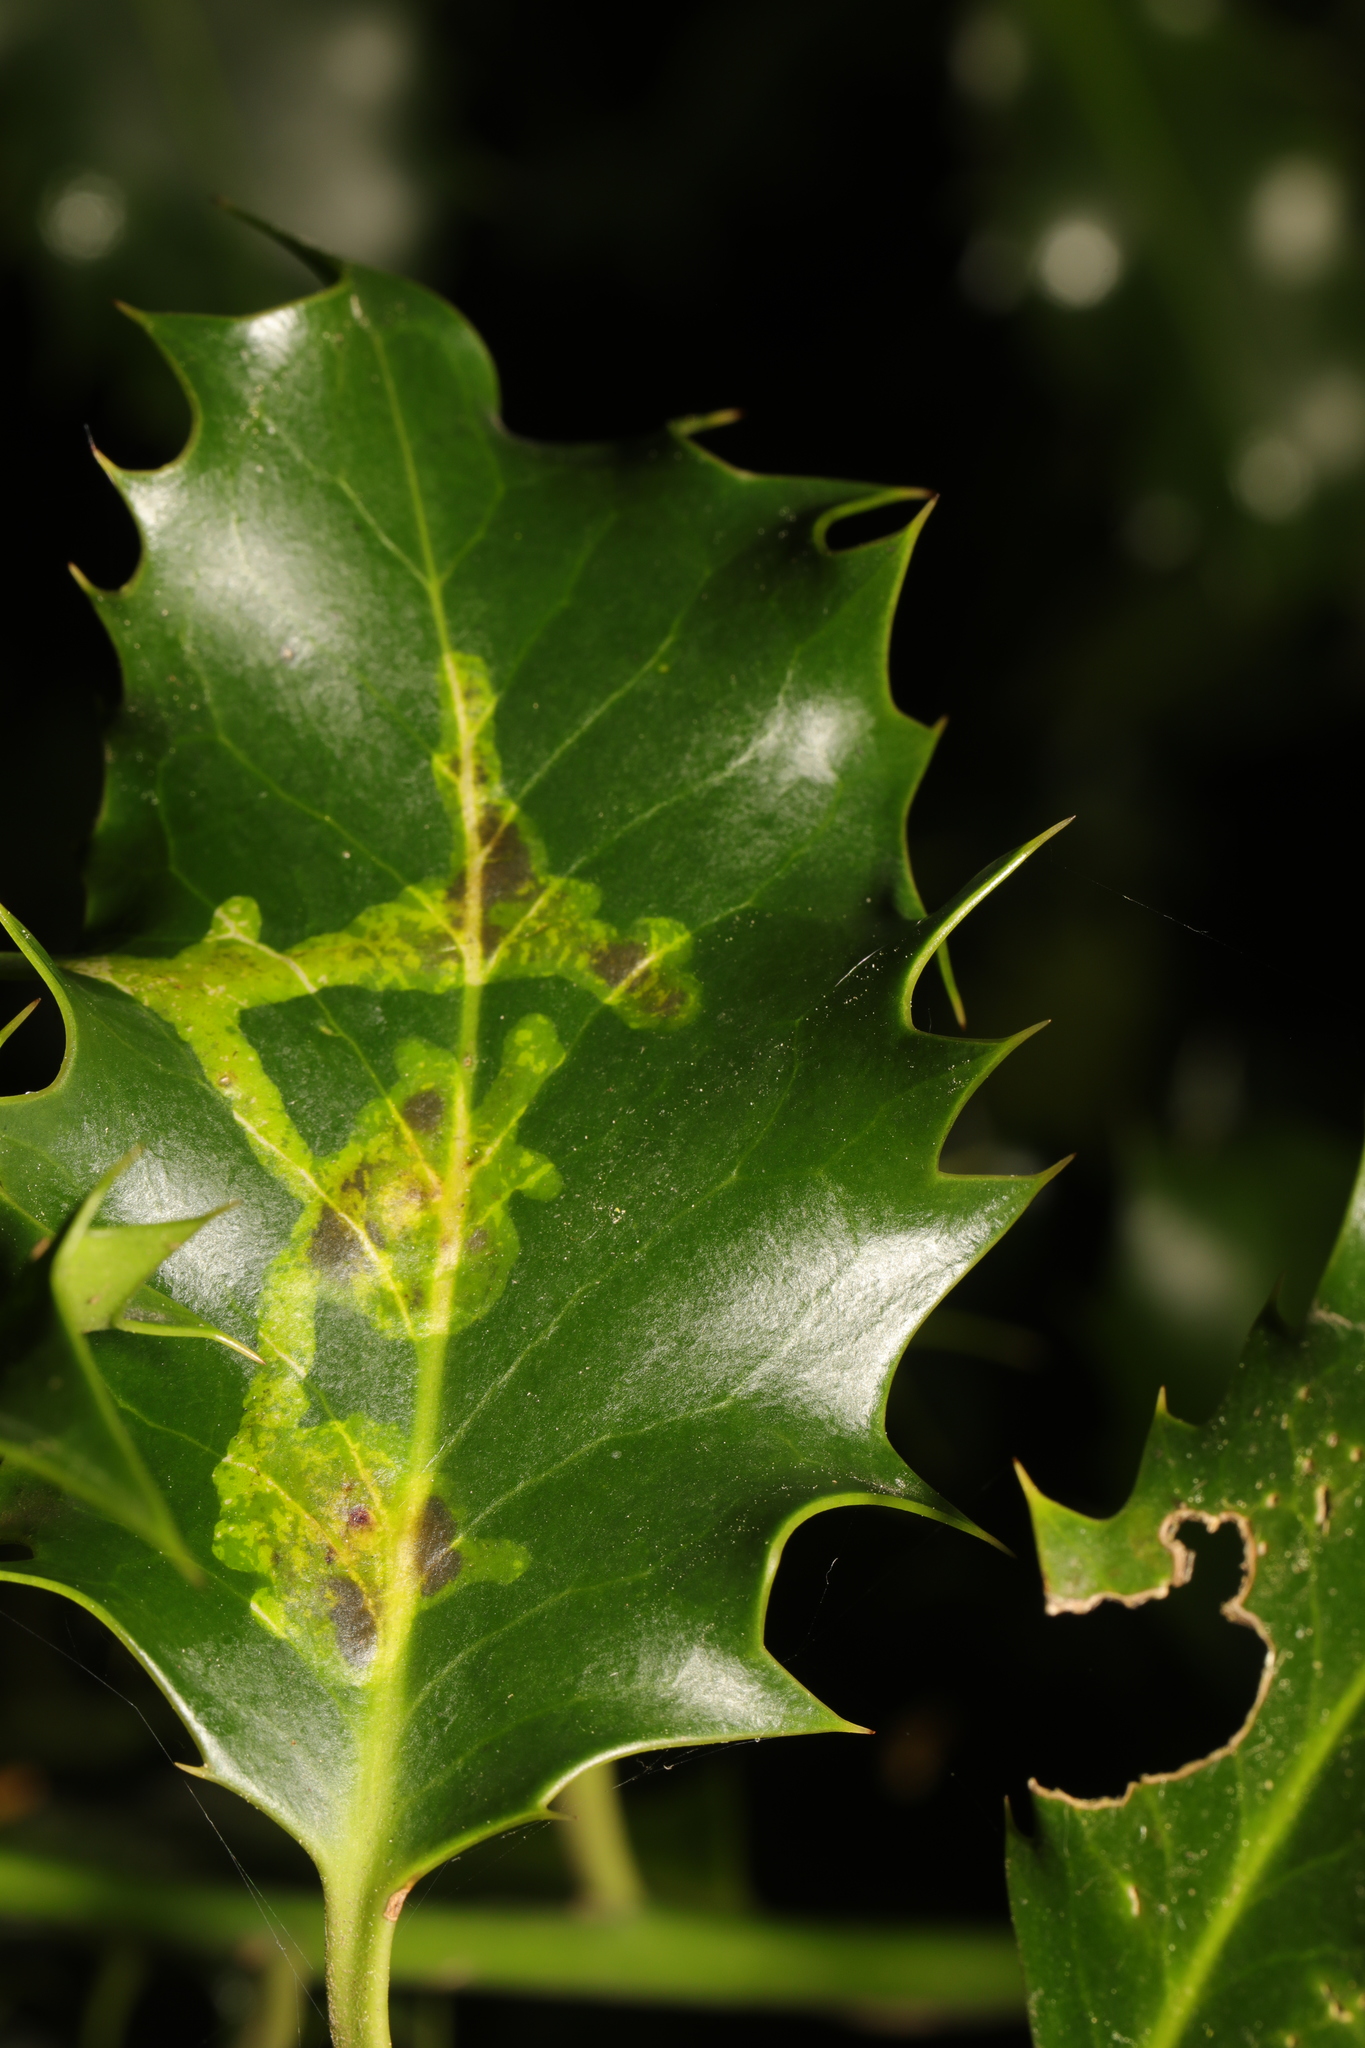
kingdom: Animalia
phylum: Arthropoda
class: Insecta
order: Diptera
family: Agromyzidae
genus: Phytomyza
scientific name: Phytomyza ilicis
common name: Holly leafminer
